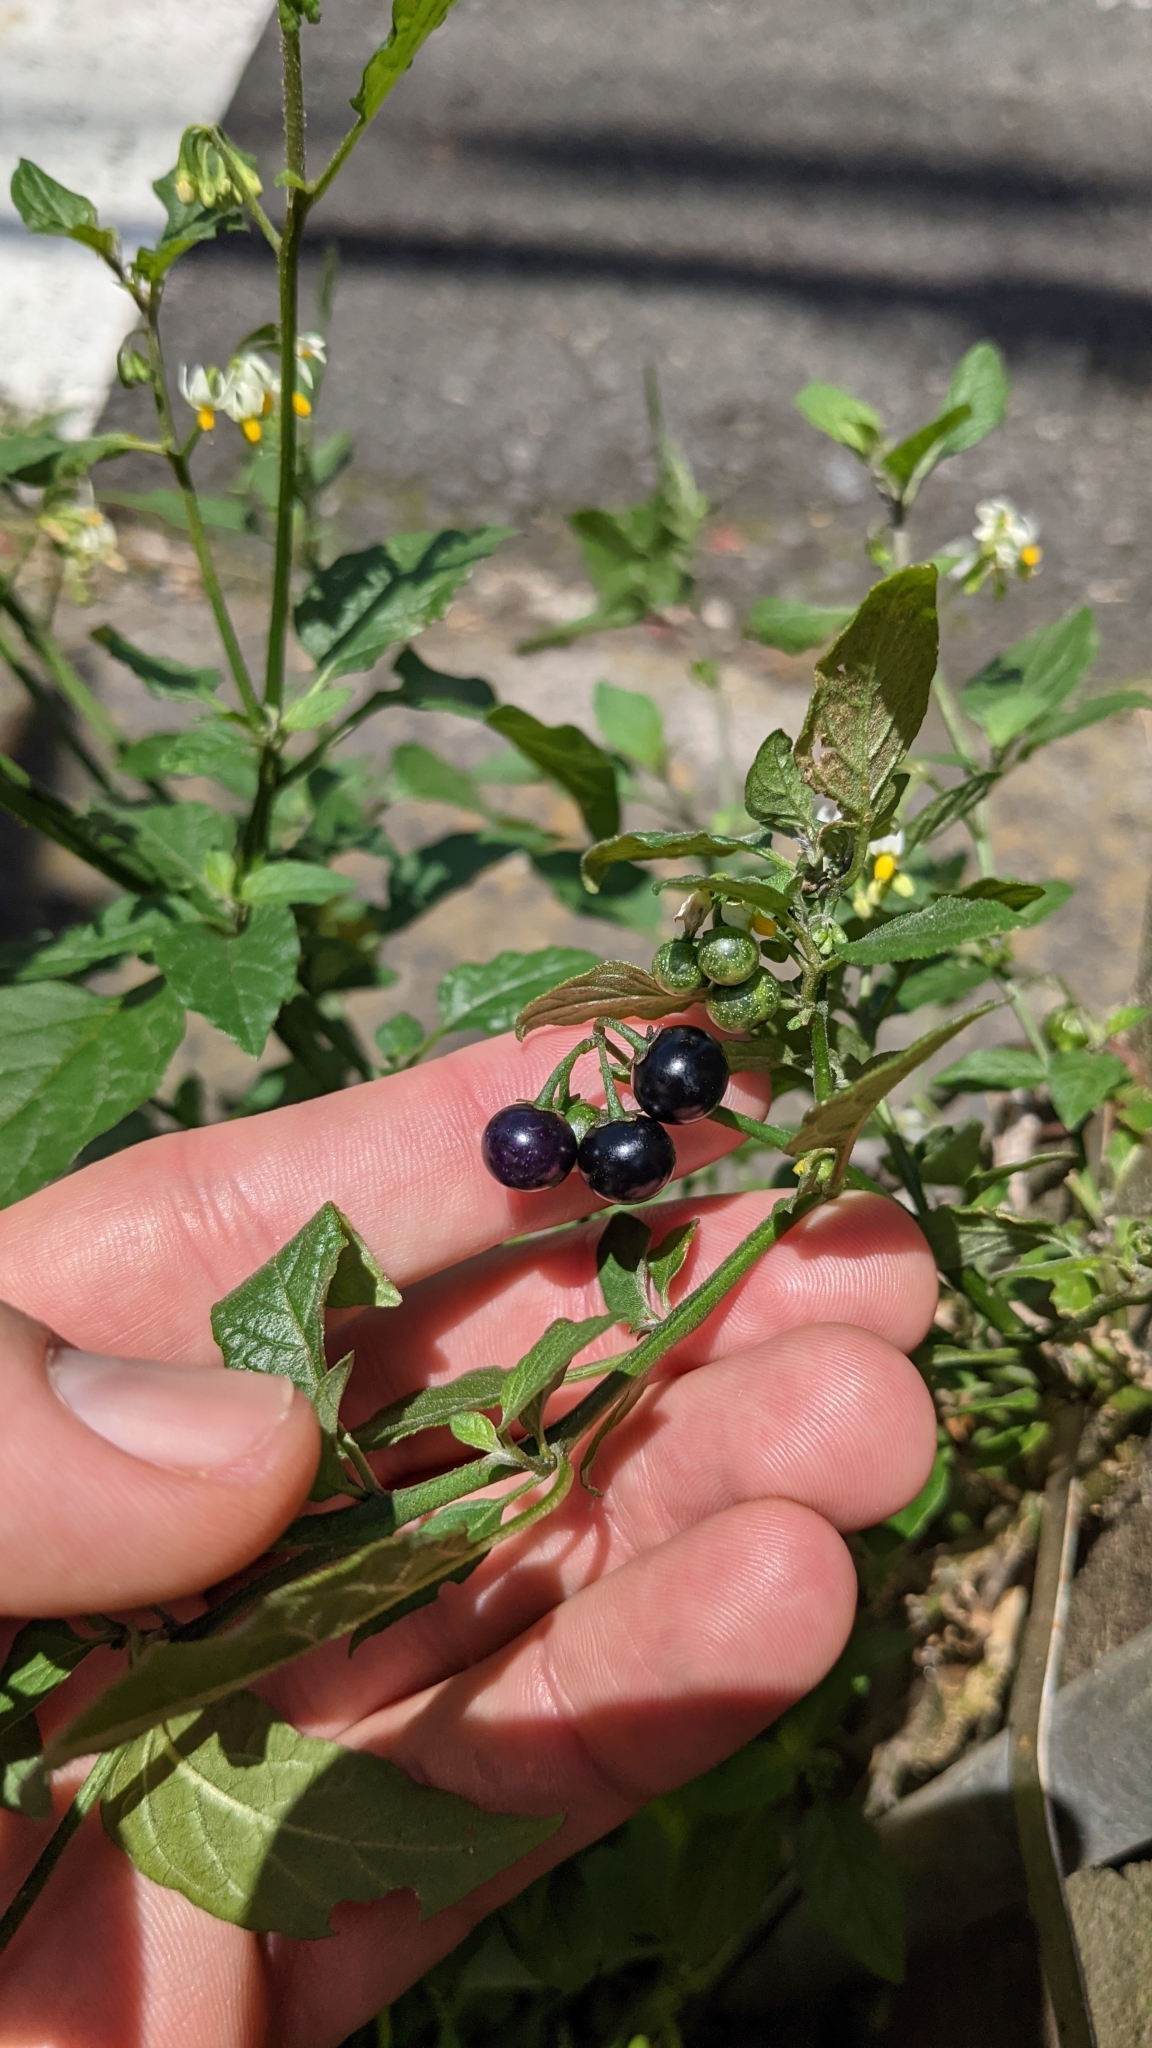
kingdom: Plantae
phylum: Tracheophyta
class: Magnoliopsida
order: Solanales
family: Solanaceae
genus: Solanum
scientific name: Solanum americanum
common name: American black nightshade
